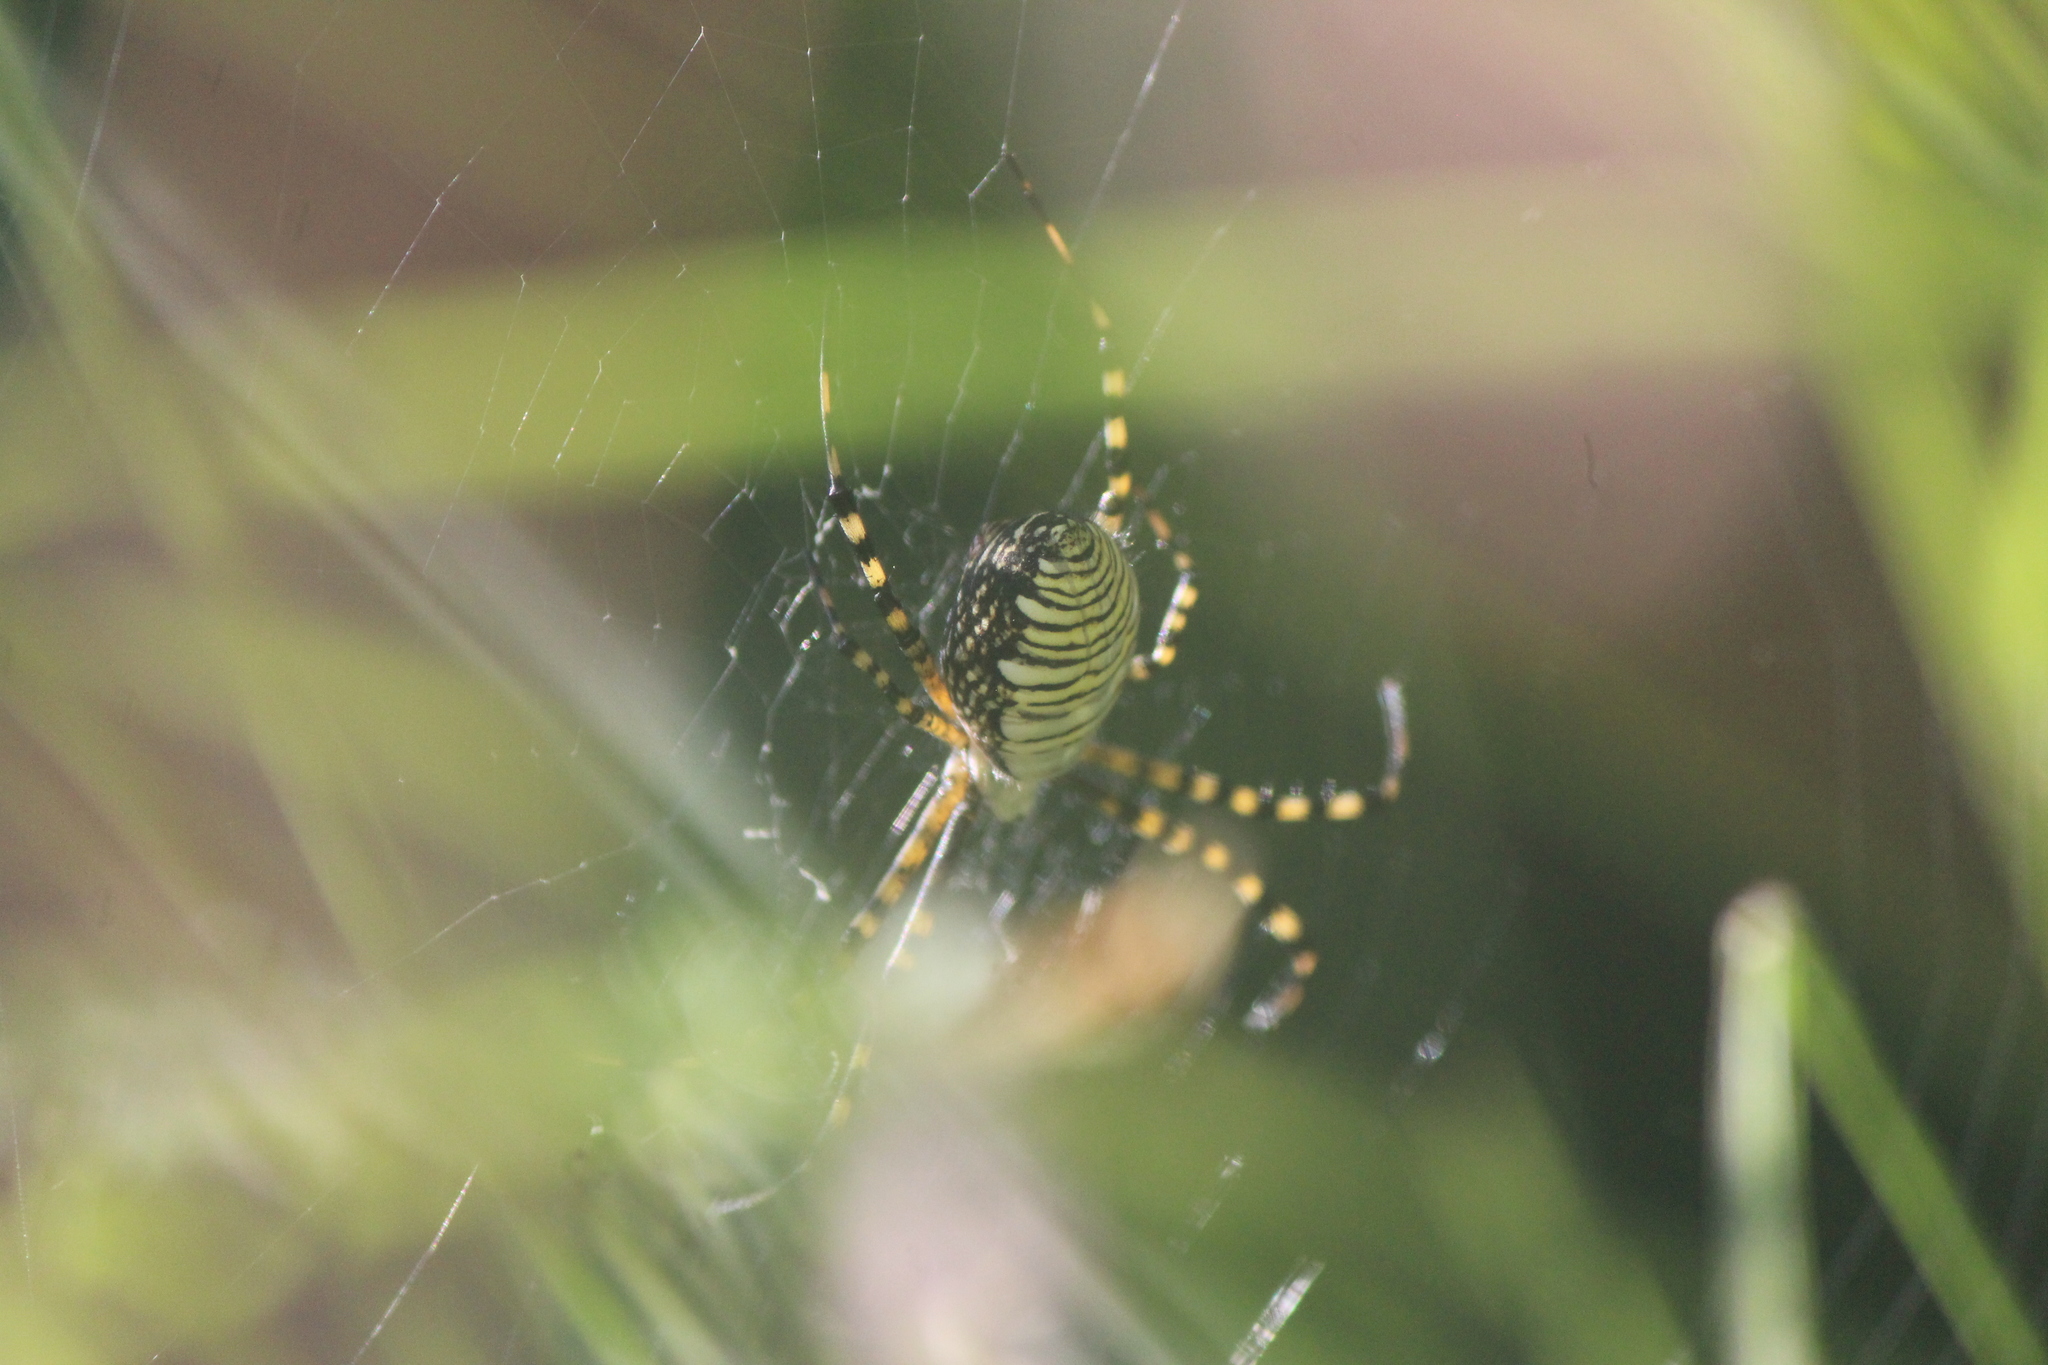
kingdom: Animalia
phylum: Arthropoda
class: Arachnida
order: Araneae
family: Araneidae
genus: Argiope
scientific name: Argiope trifasciata
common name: Banded garden spider
